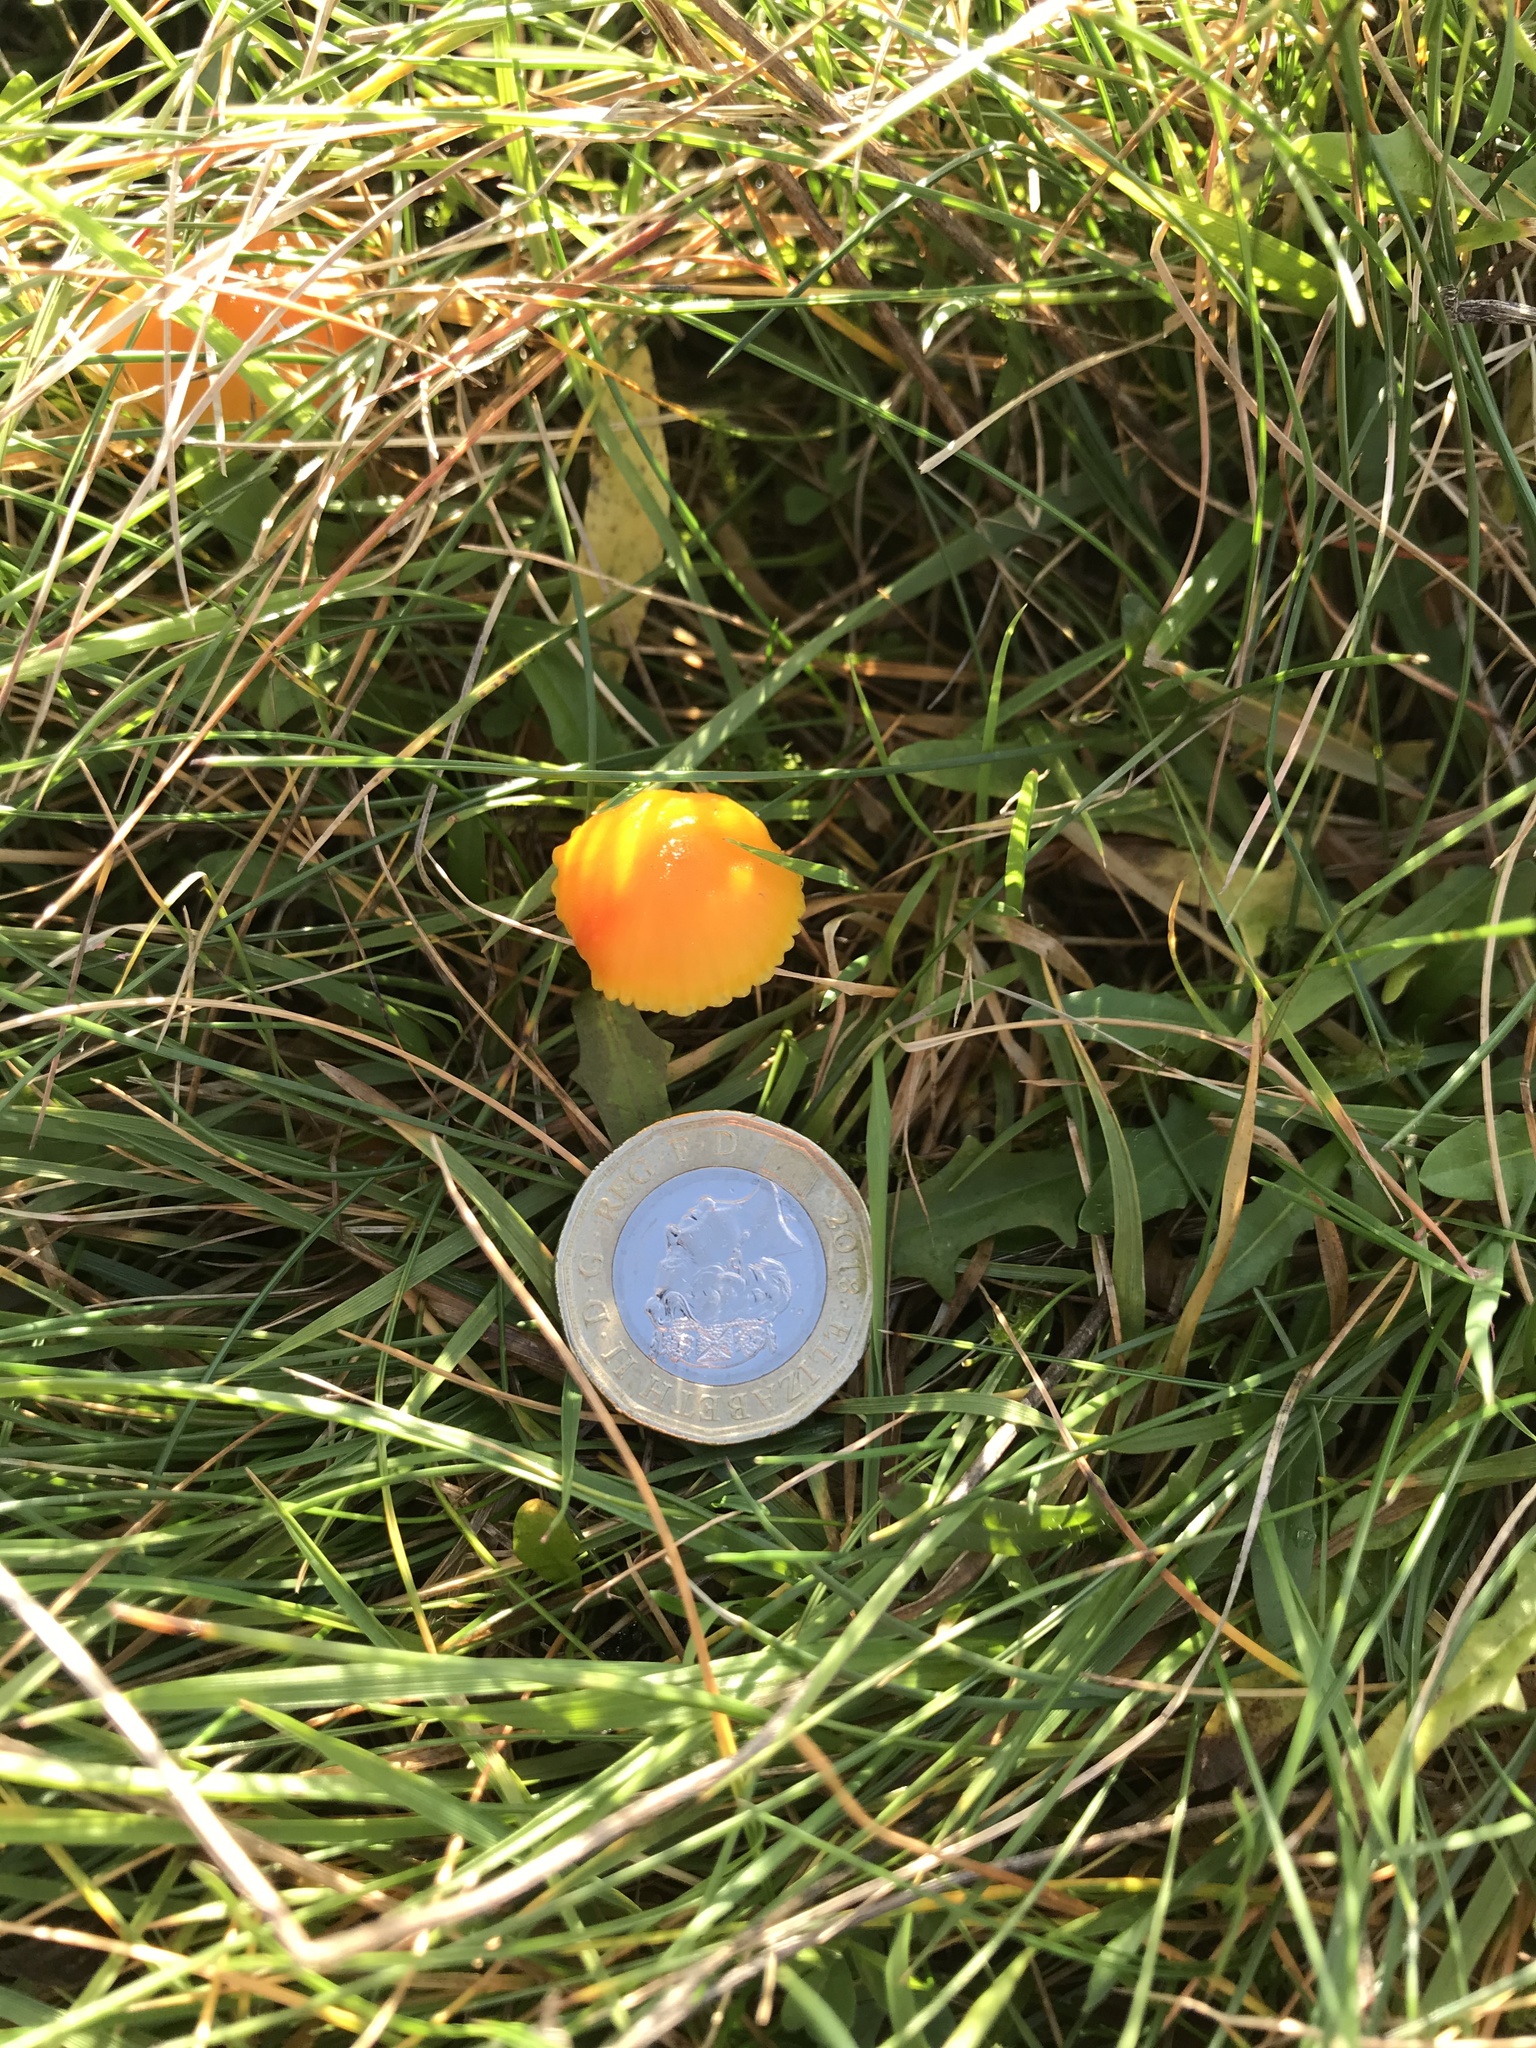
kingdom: Fungi
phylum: Basidiomycota
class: Agaricomycetes
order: Agaricales
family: Hygrophoraceae
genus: Hygrocybe
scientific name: Hygrocybe ceracea
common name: Butter waxcap
